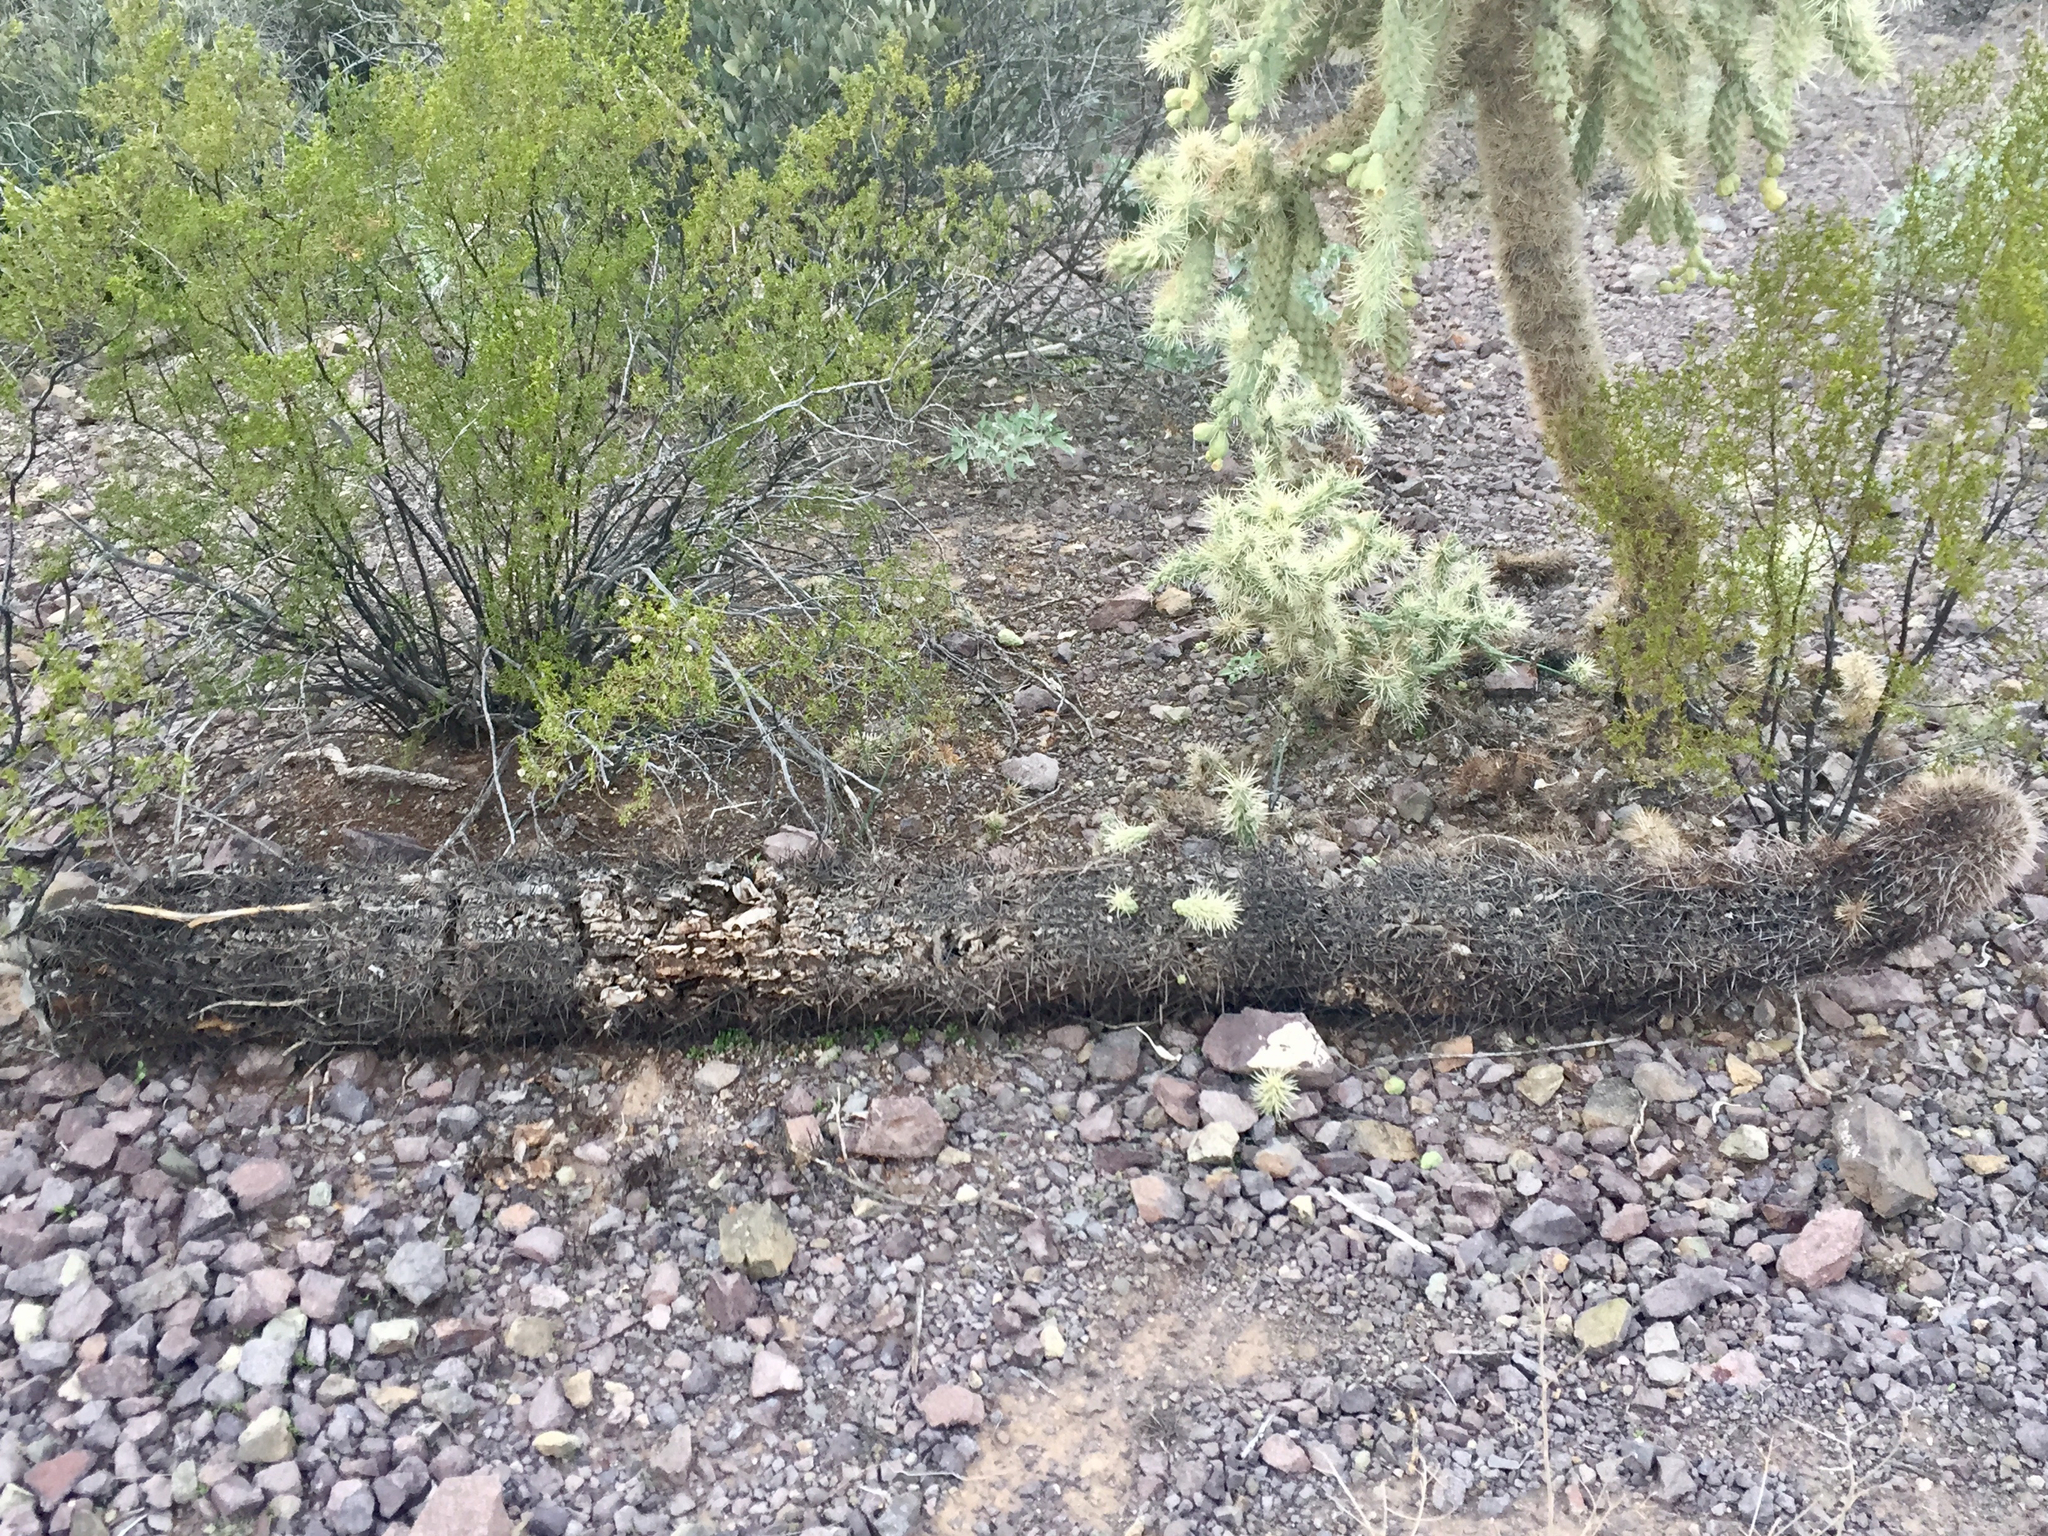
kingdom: Plantae
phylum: Tracheophyta
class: Magnoliopsida
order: Caryophyllales
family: Cactaceae
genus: Carnegiea
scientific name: Carnegiea gigantea
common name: Saguaro
